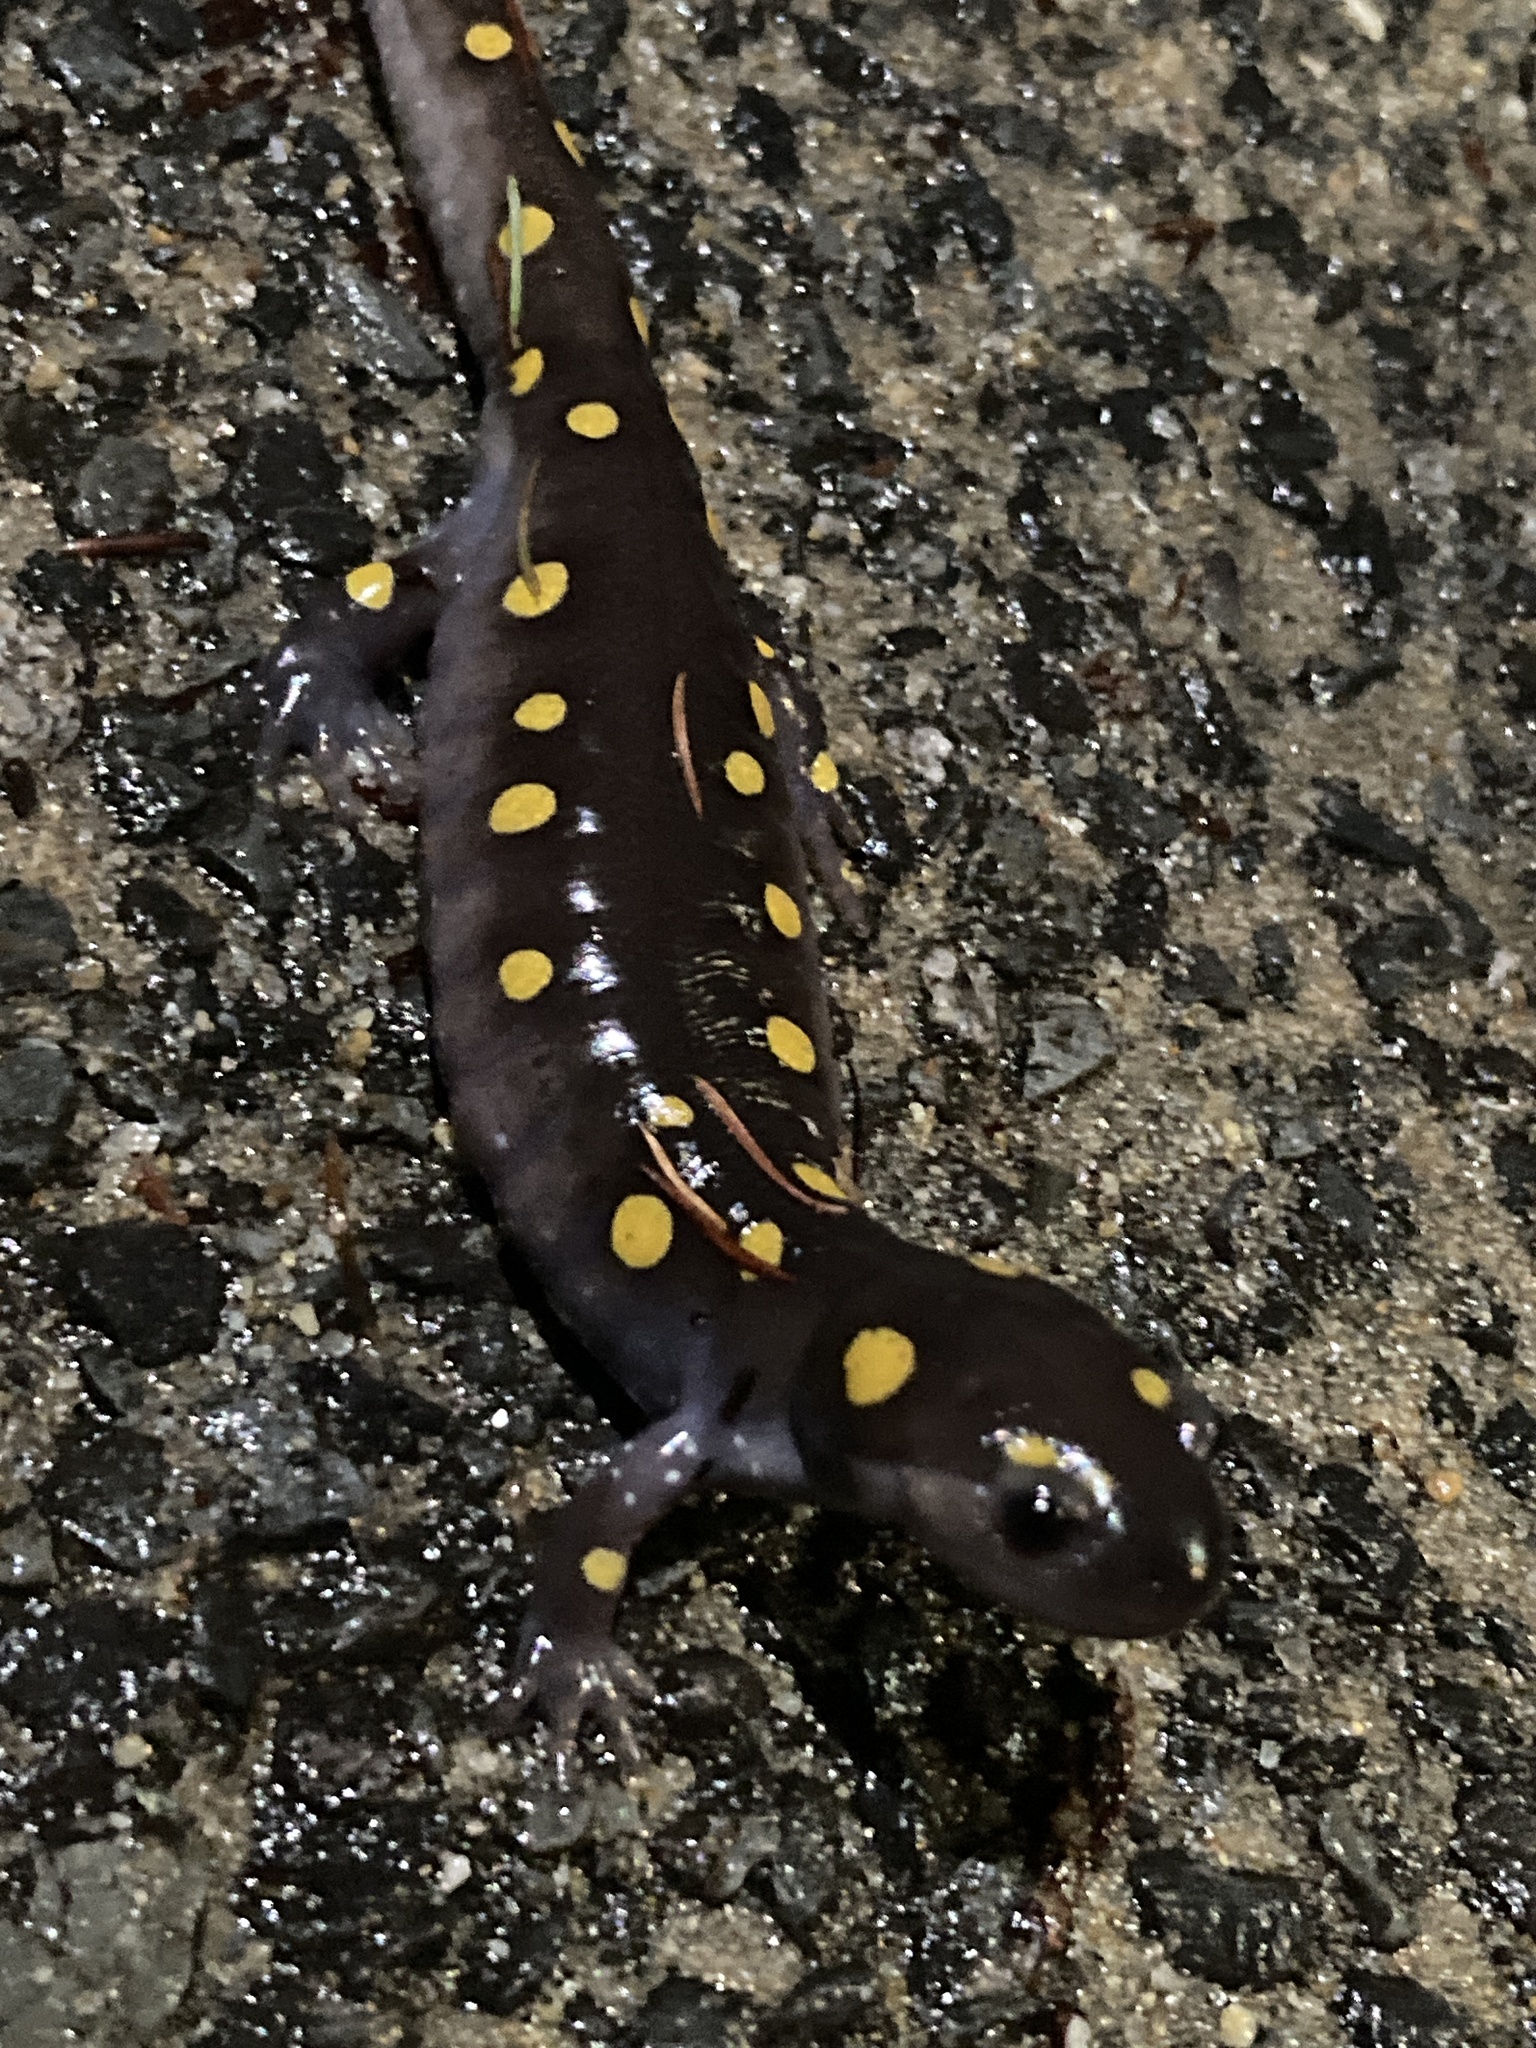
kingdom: Animalia
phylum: Chordata
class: Amphibia
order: Caudata
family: Ambystomatidae
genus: Ambystoma
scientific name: Ambystoma maculatum
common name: Spotted salamander
